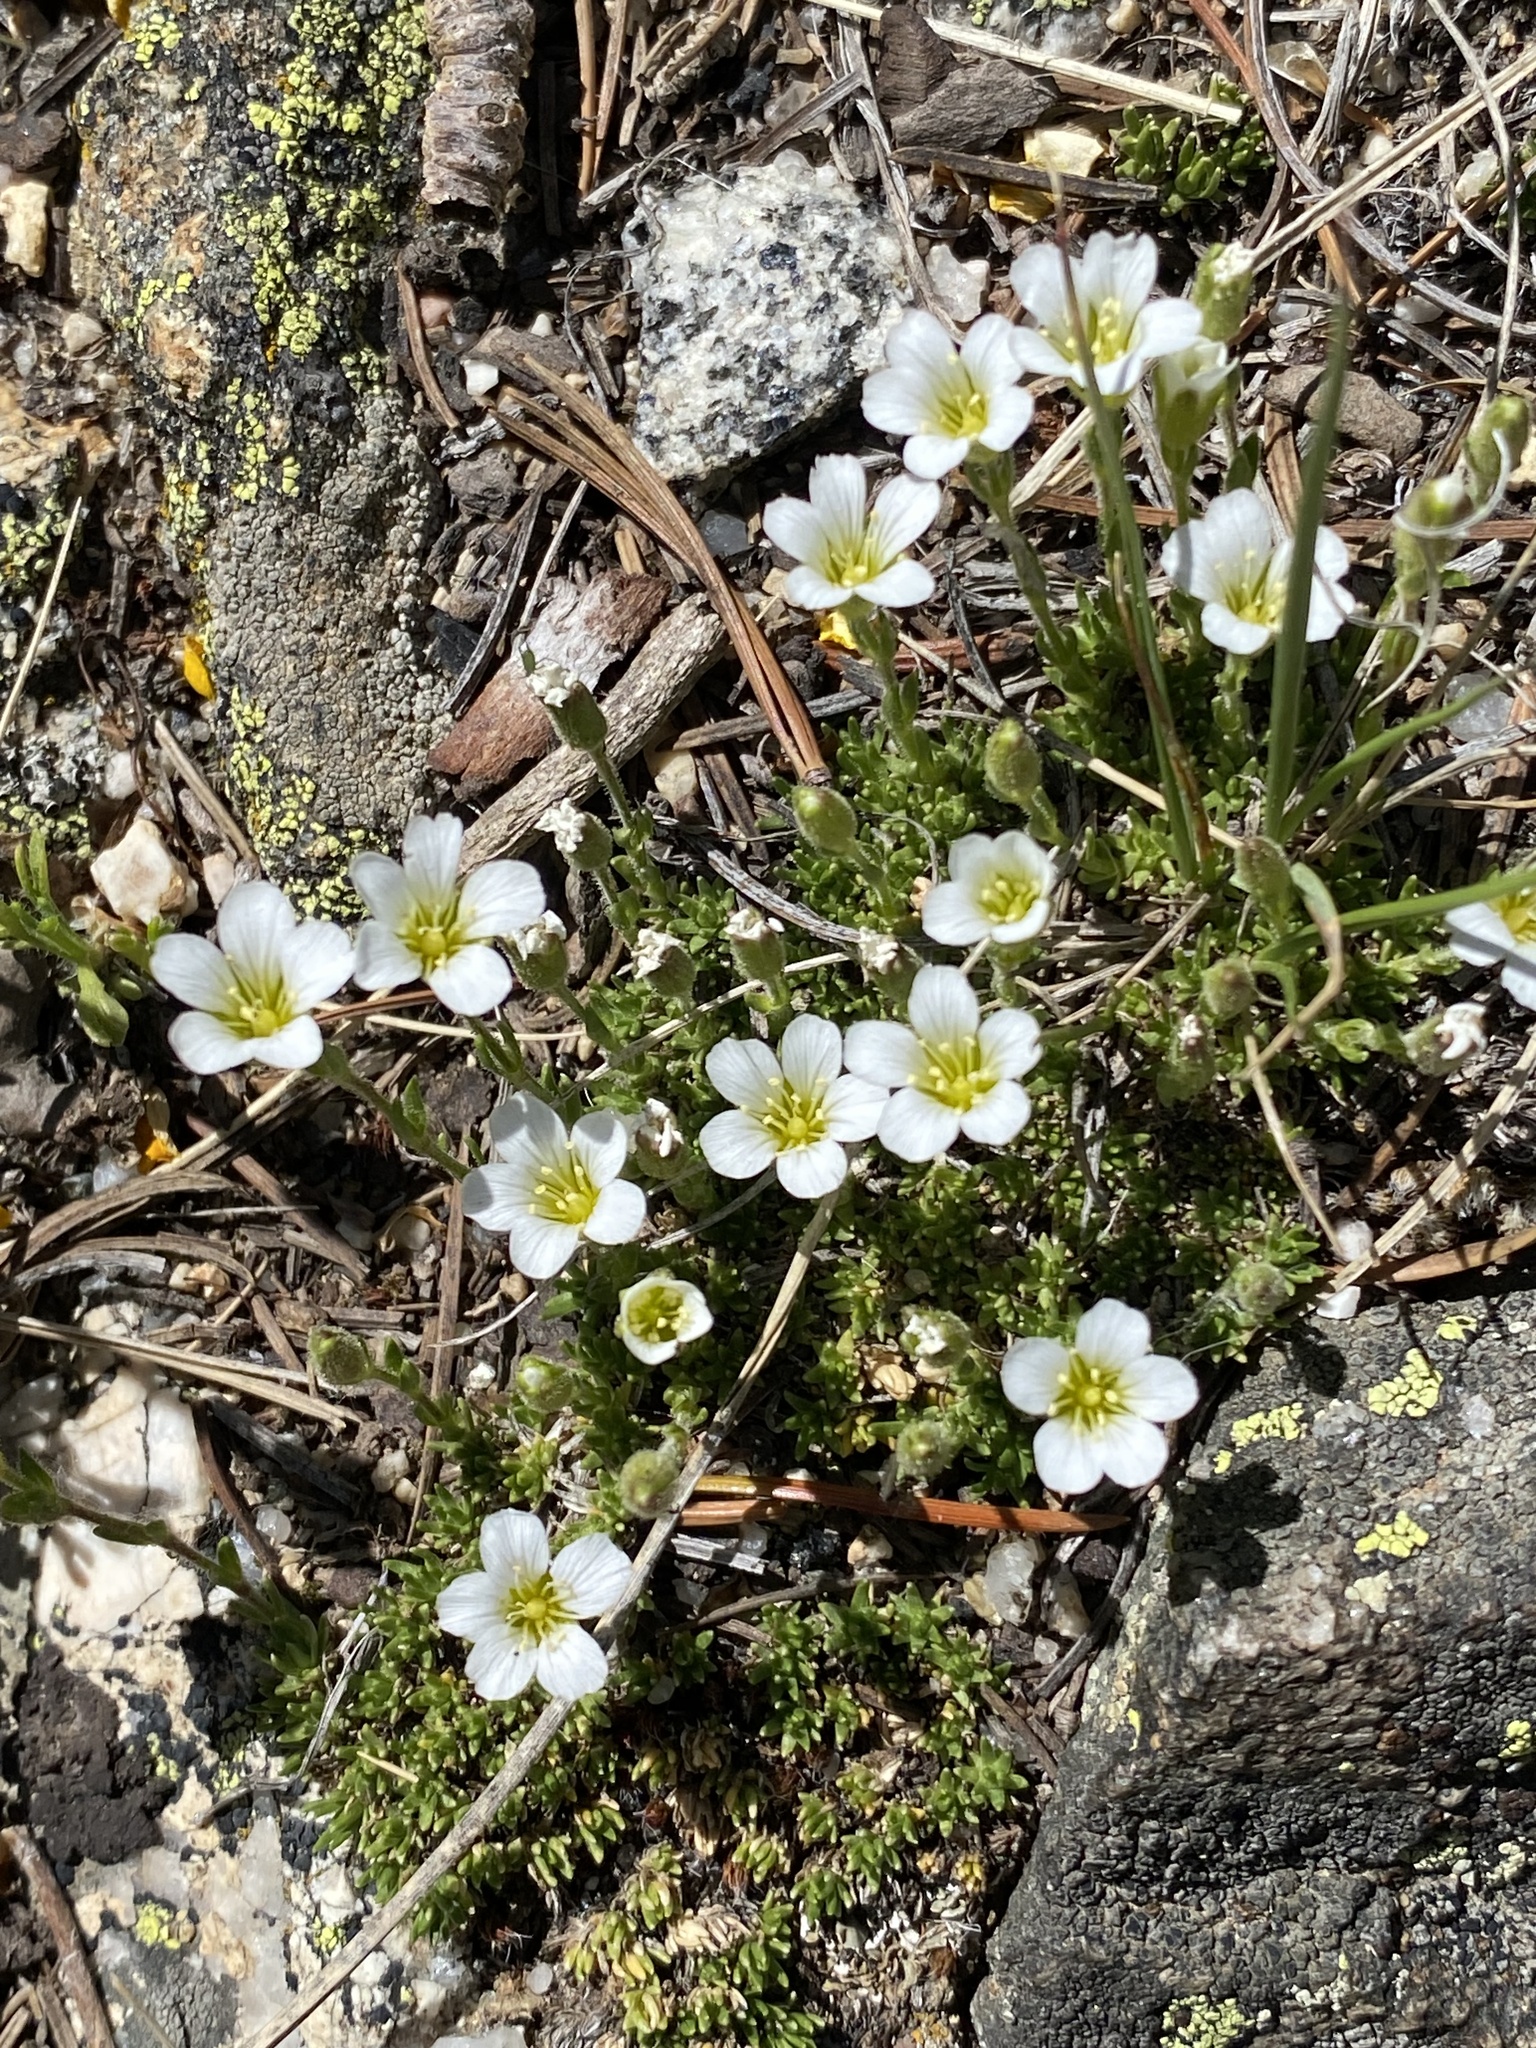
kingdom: Plantae
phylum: Tracheophyta
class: Magnoliopsida
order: Caryophyllales
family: Caryophyllaceae
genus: Cherleria
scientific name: Cherleria obtusiloba
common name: Alpine stitchwort
